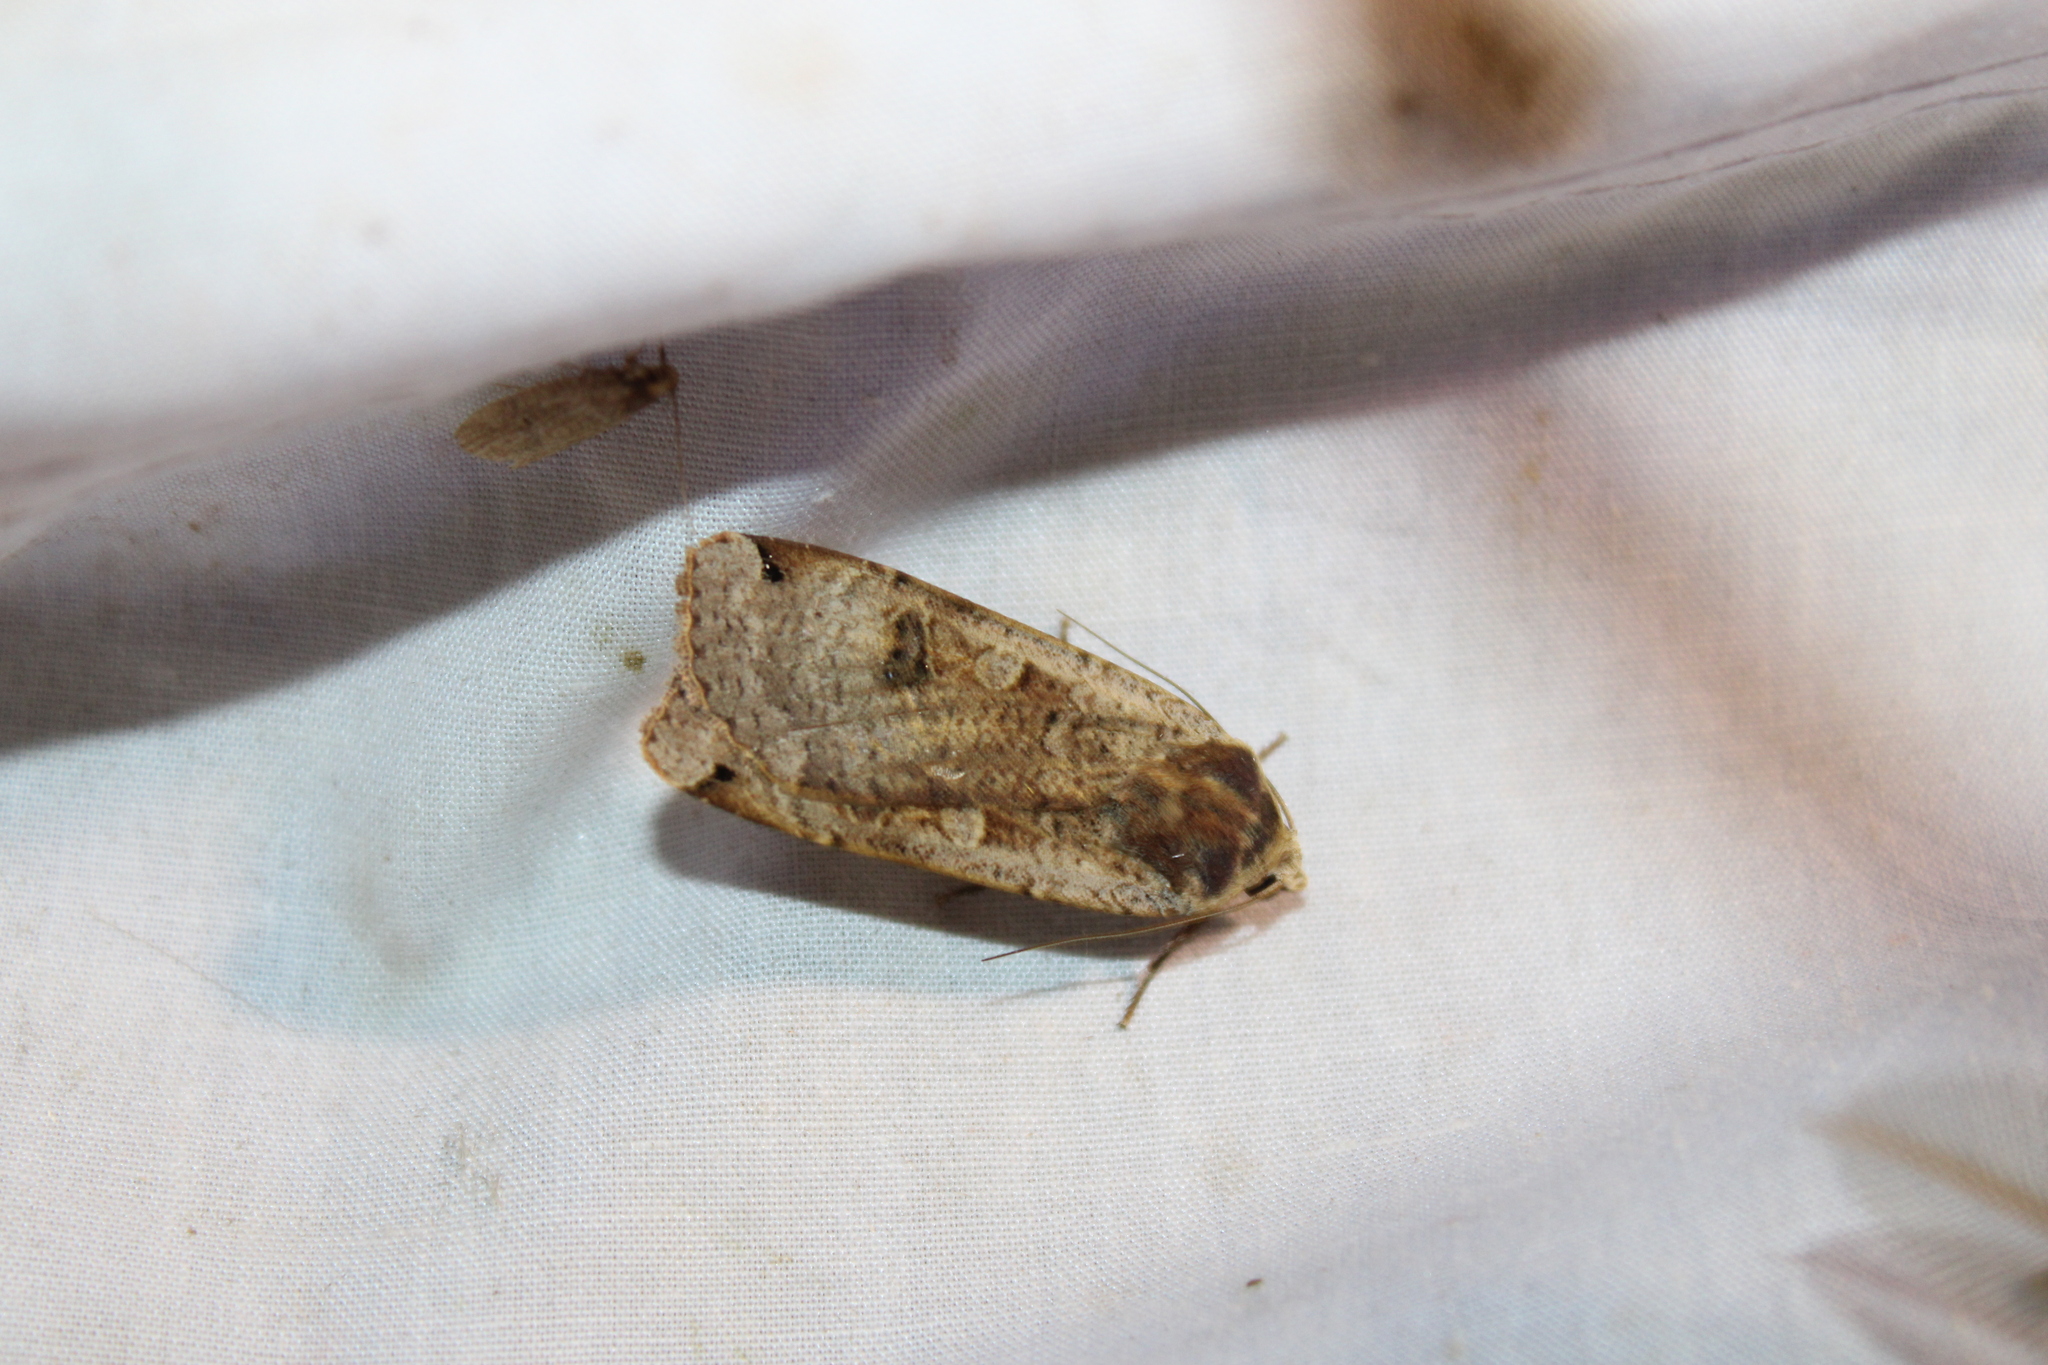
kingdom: Animalia
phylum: Arthropoda
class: Insecta
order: Lepidoptera
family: Noctuidae
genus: Noctua
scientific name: Noctua pronuba
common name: Large yellow underwing
